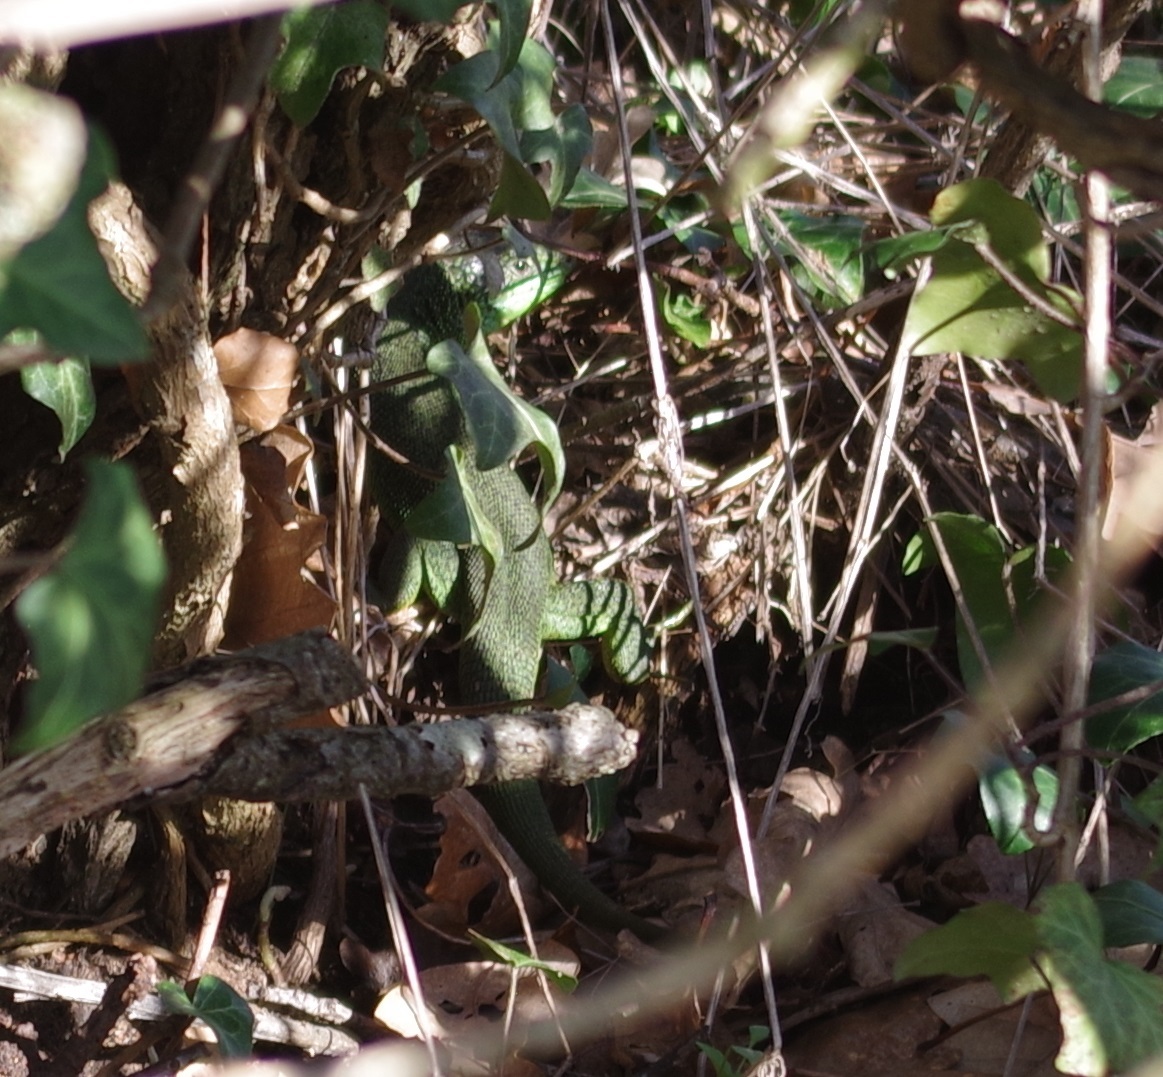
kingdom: Animalia
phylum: Chordata
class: Squamata
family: Lacertidae
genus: Lacerta
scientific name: Lacerta bilineata
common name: Western green lizard
